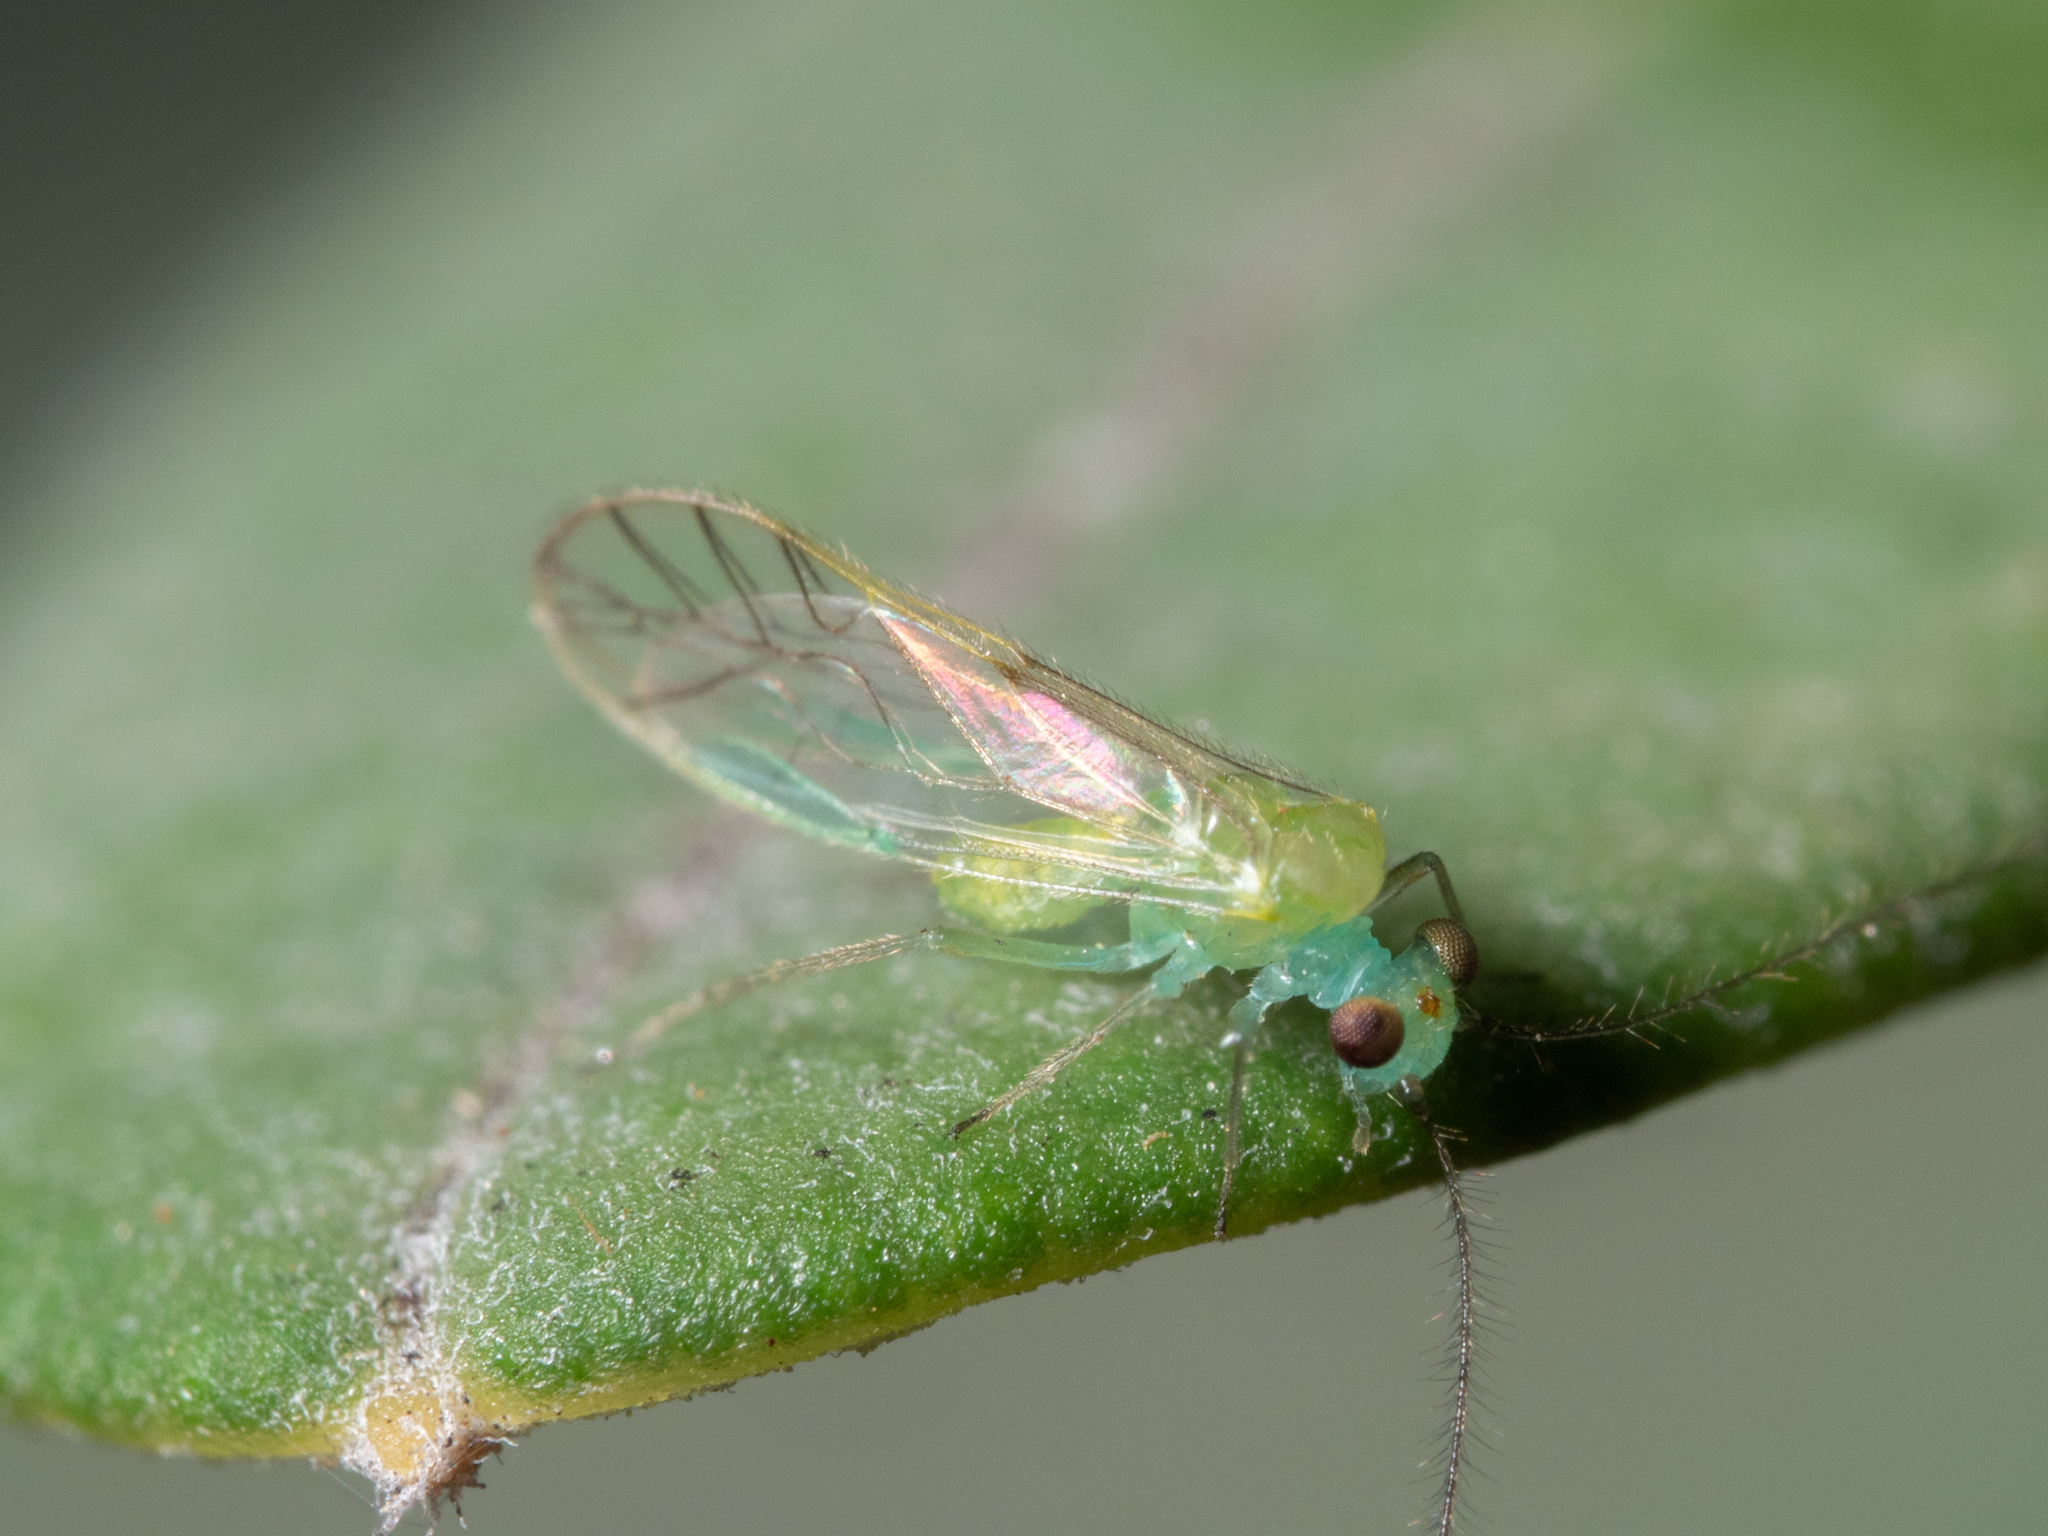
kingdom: Animalia
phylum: Arthropoda
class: Insecta
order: Psocodea
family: Pseudocaeciliidae
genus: Austropsocus
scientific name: Austropsocus viridis
